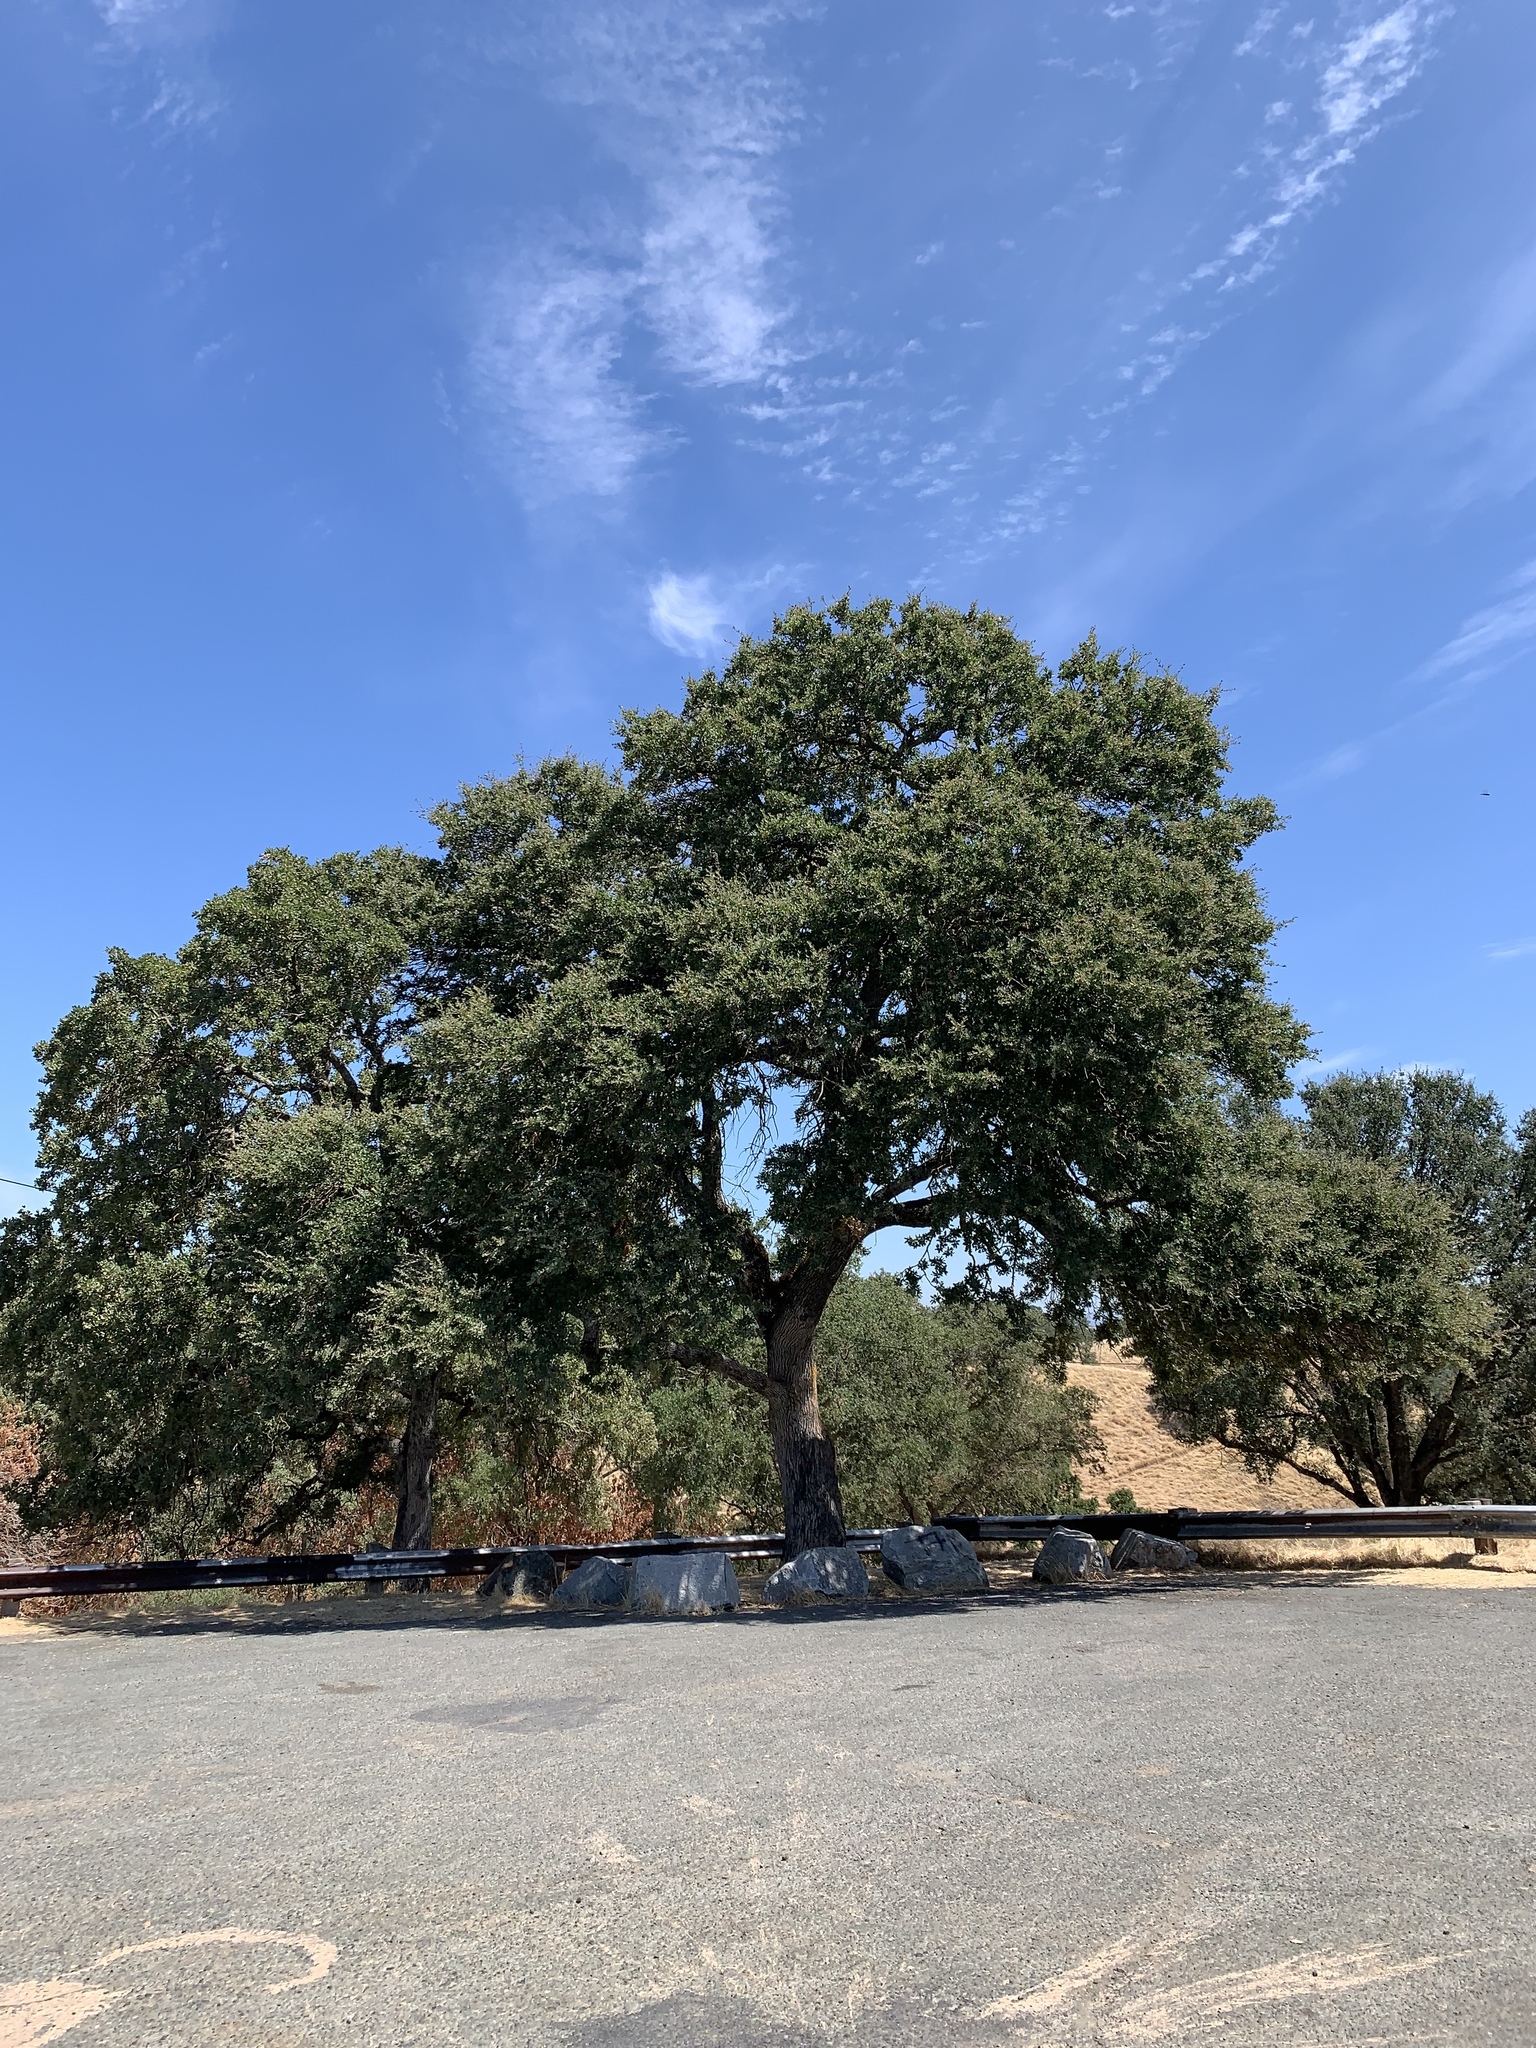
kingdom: Plantae
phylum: Tracheophyta
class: Magnoliopsida
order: Fagales
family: Fagaceae
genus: Quercus
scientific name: Quercus douglasii
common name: Blue oak
